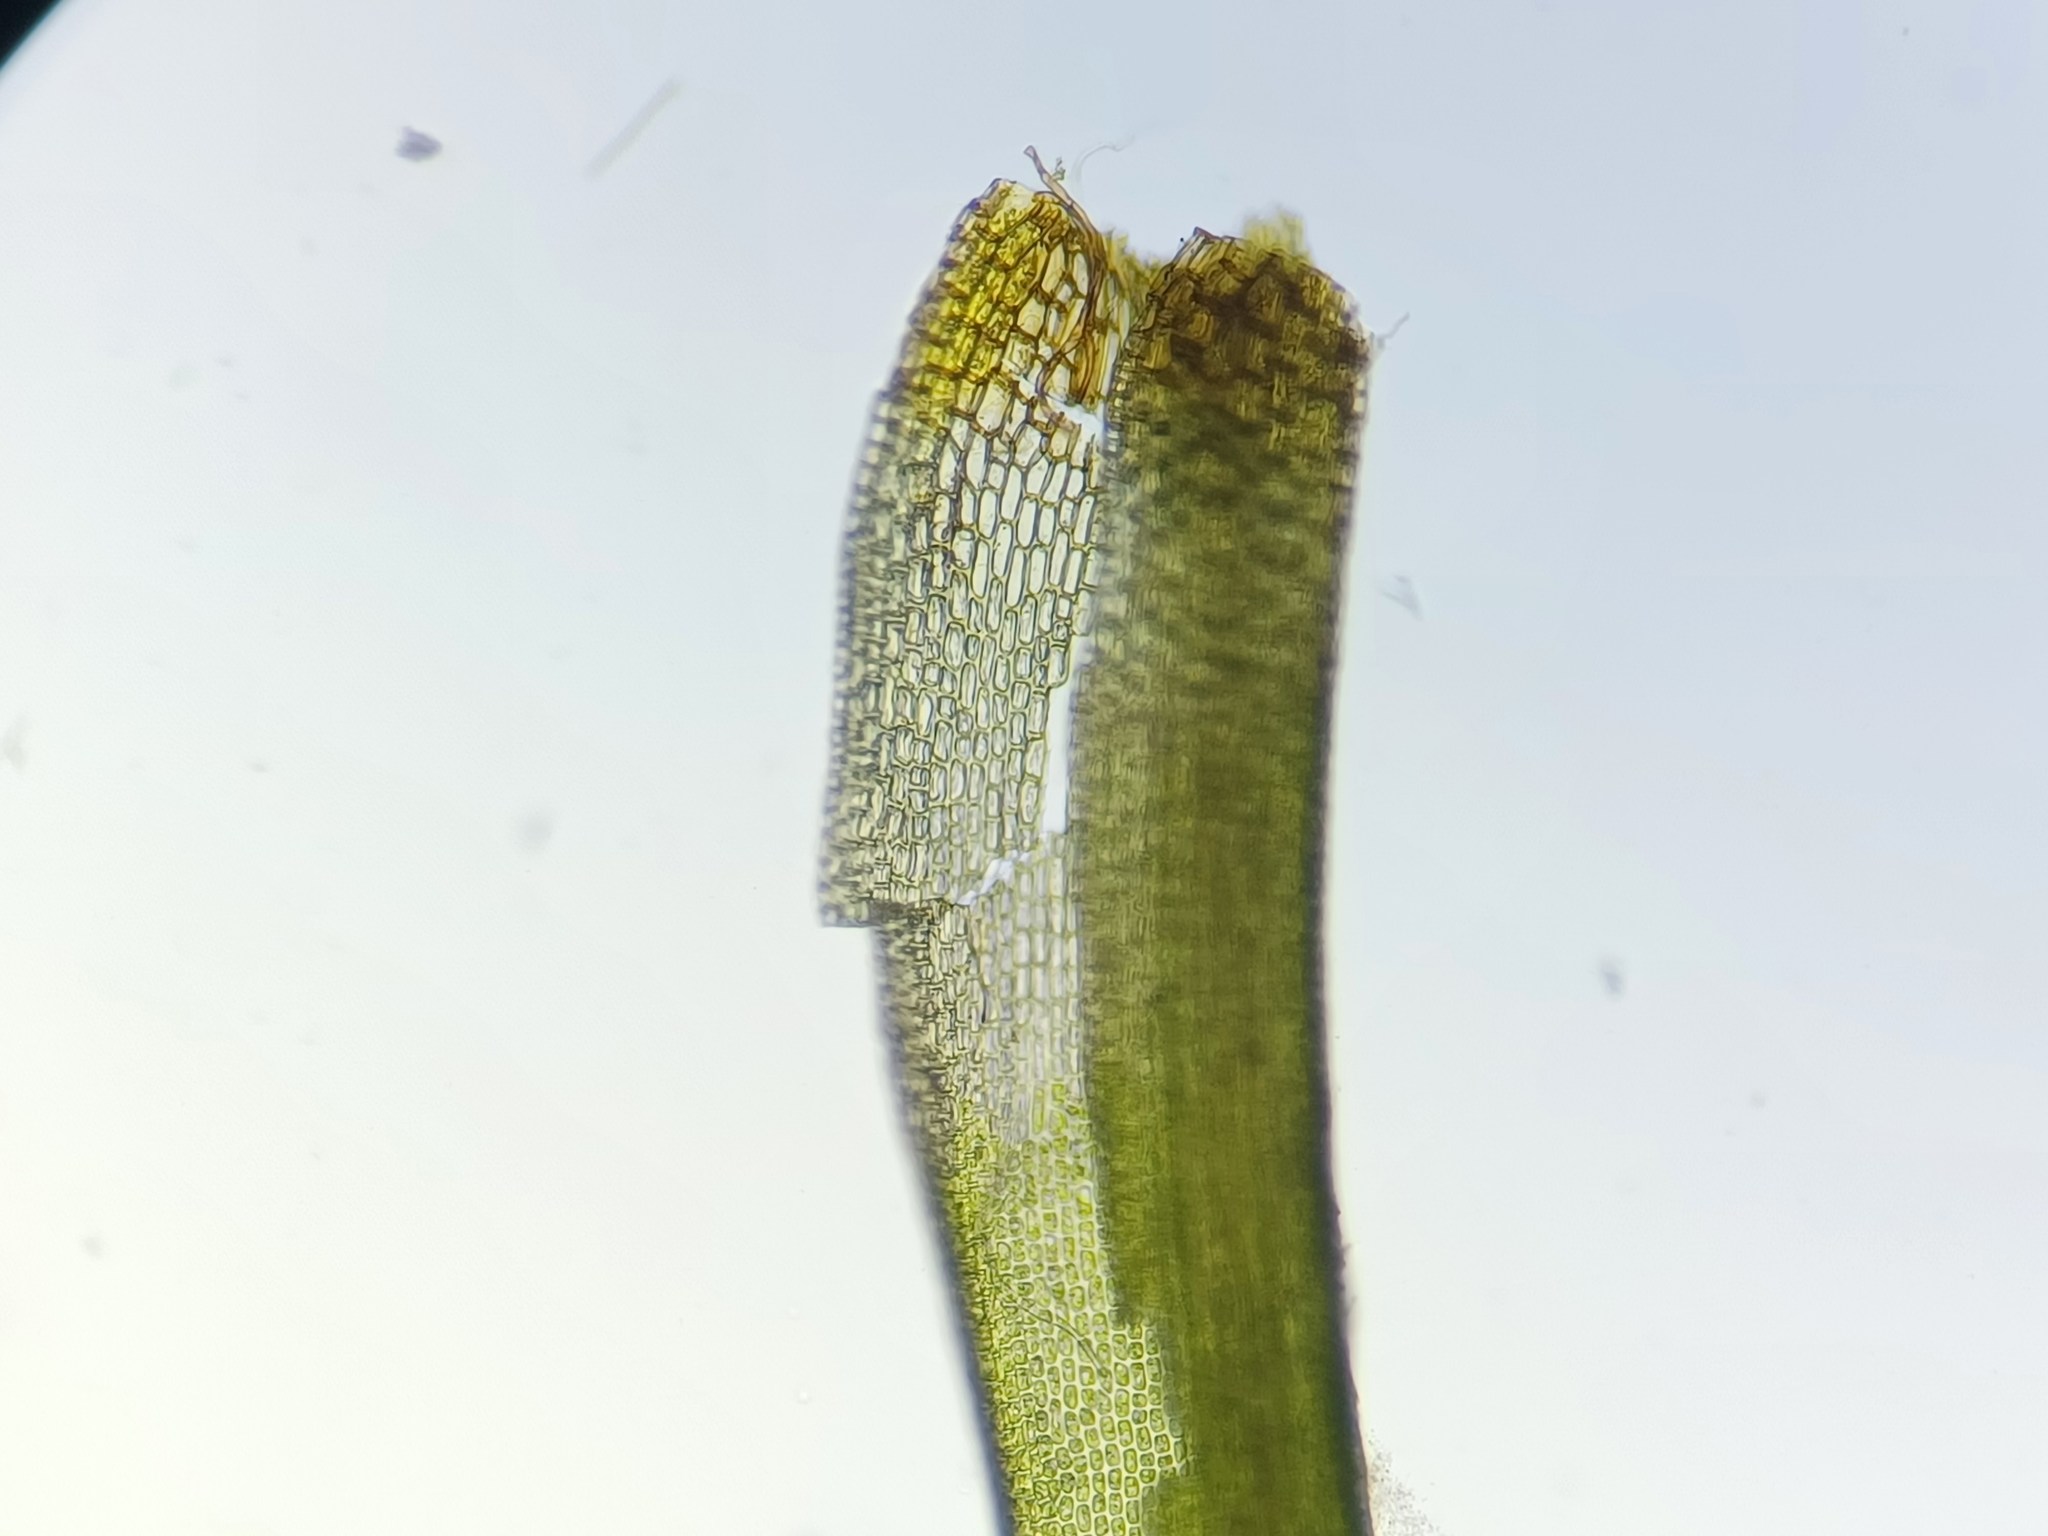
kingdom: Plantae
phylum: Bryophyta
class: Bryopsida
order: Dicranales
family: Dicranaceae
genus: Dicranum
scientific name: Dicranum viride
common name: Green broom moss
